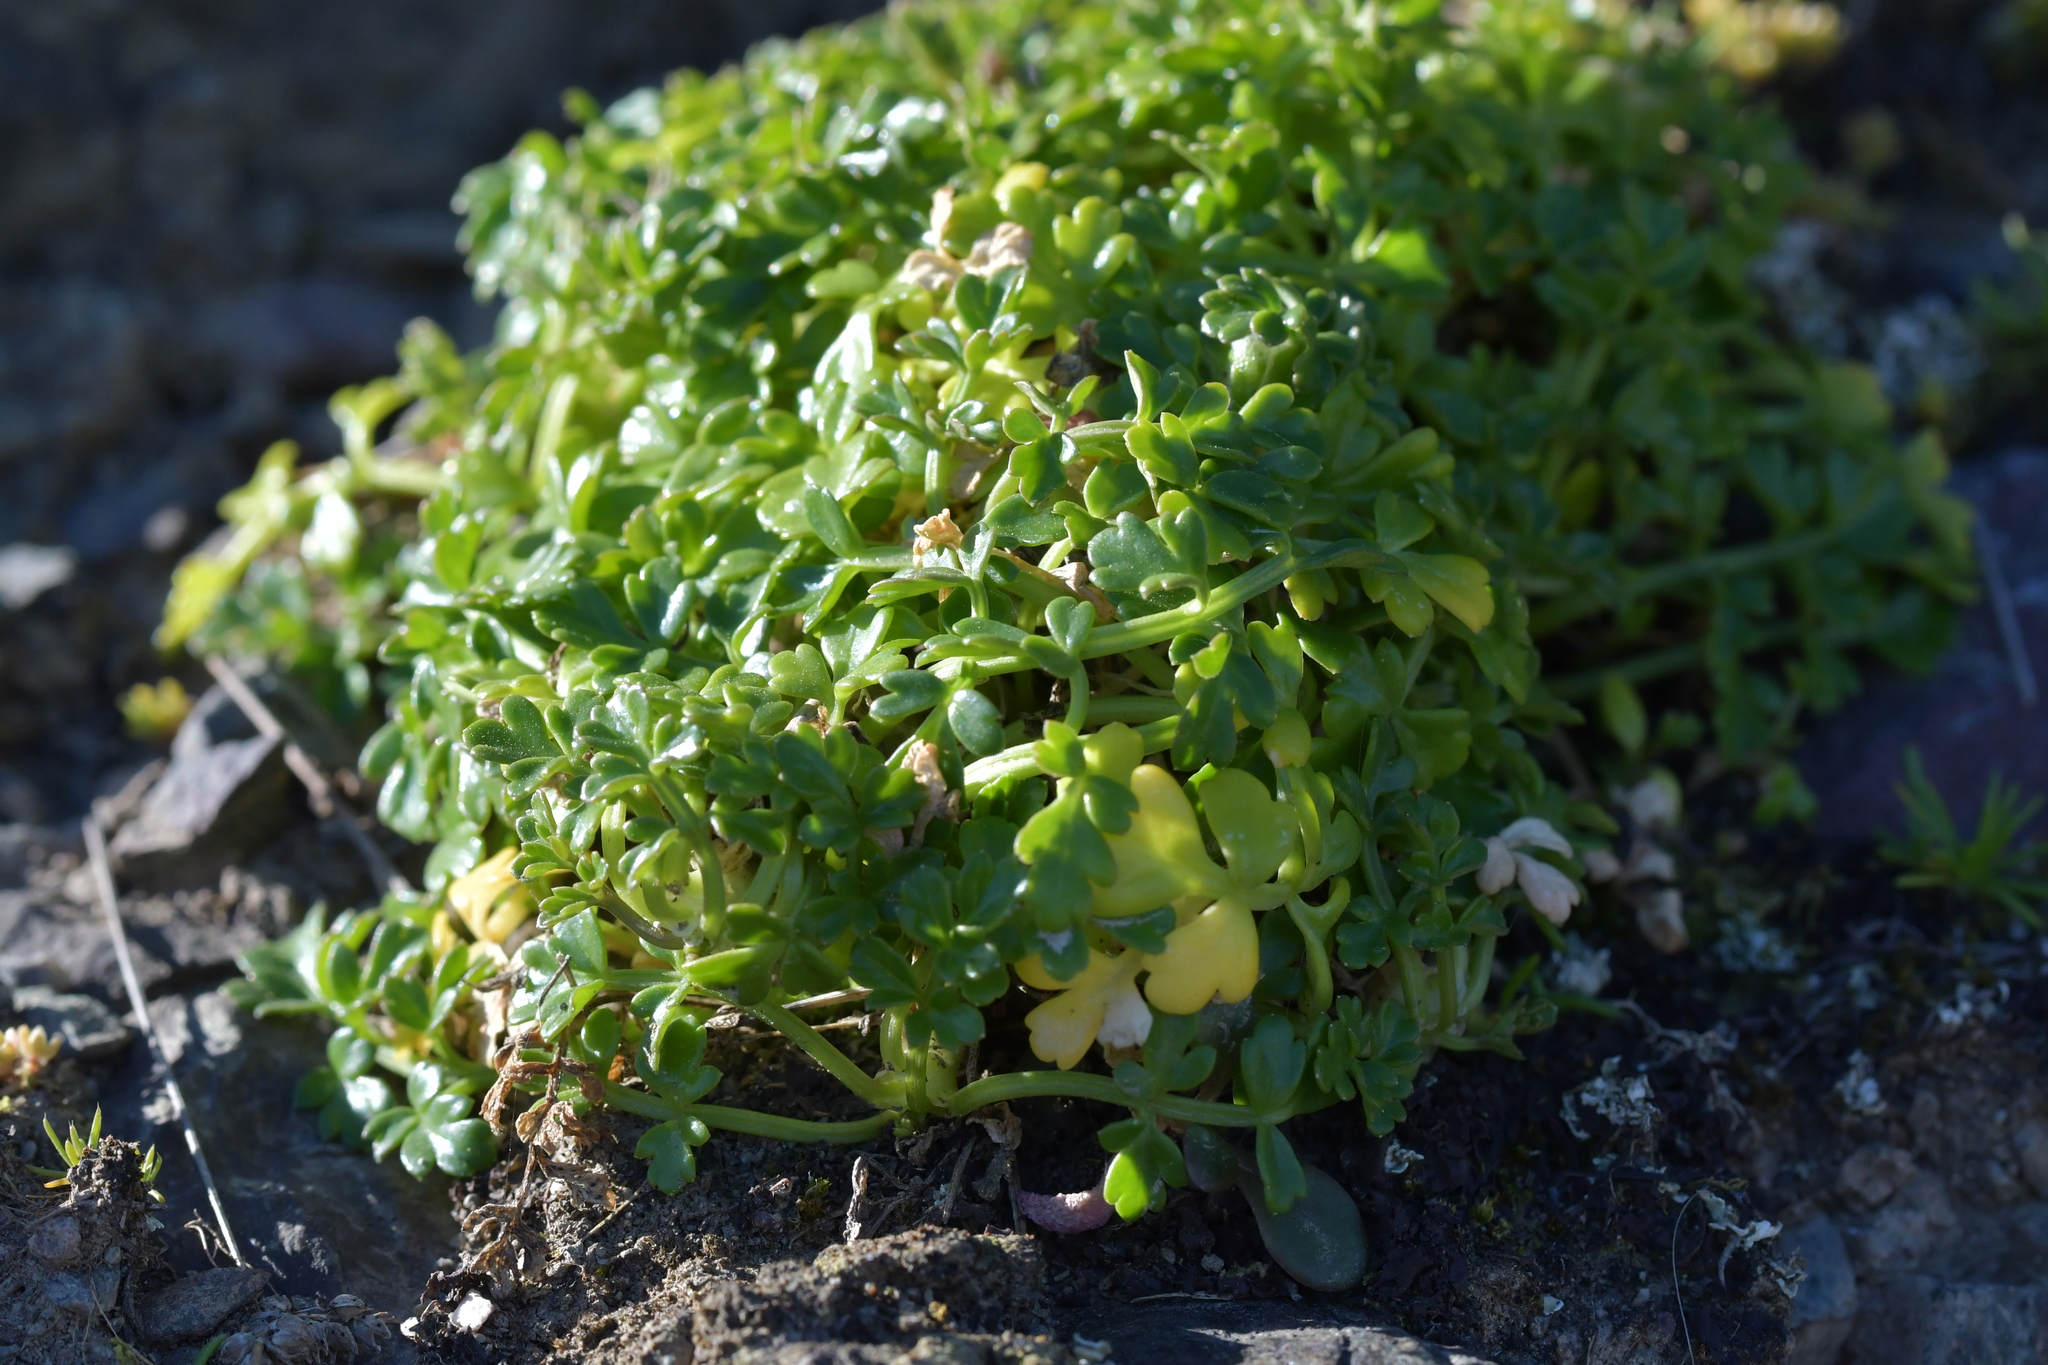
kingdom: Plantae
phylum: Tracheophyta
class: Magnoliopsida
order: Apiales
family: Apiaceae
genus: Apium
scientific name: Apium prostratum
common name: Prostrate marshwort
